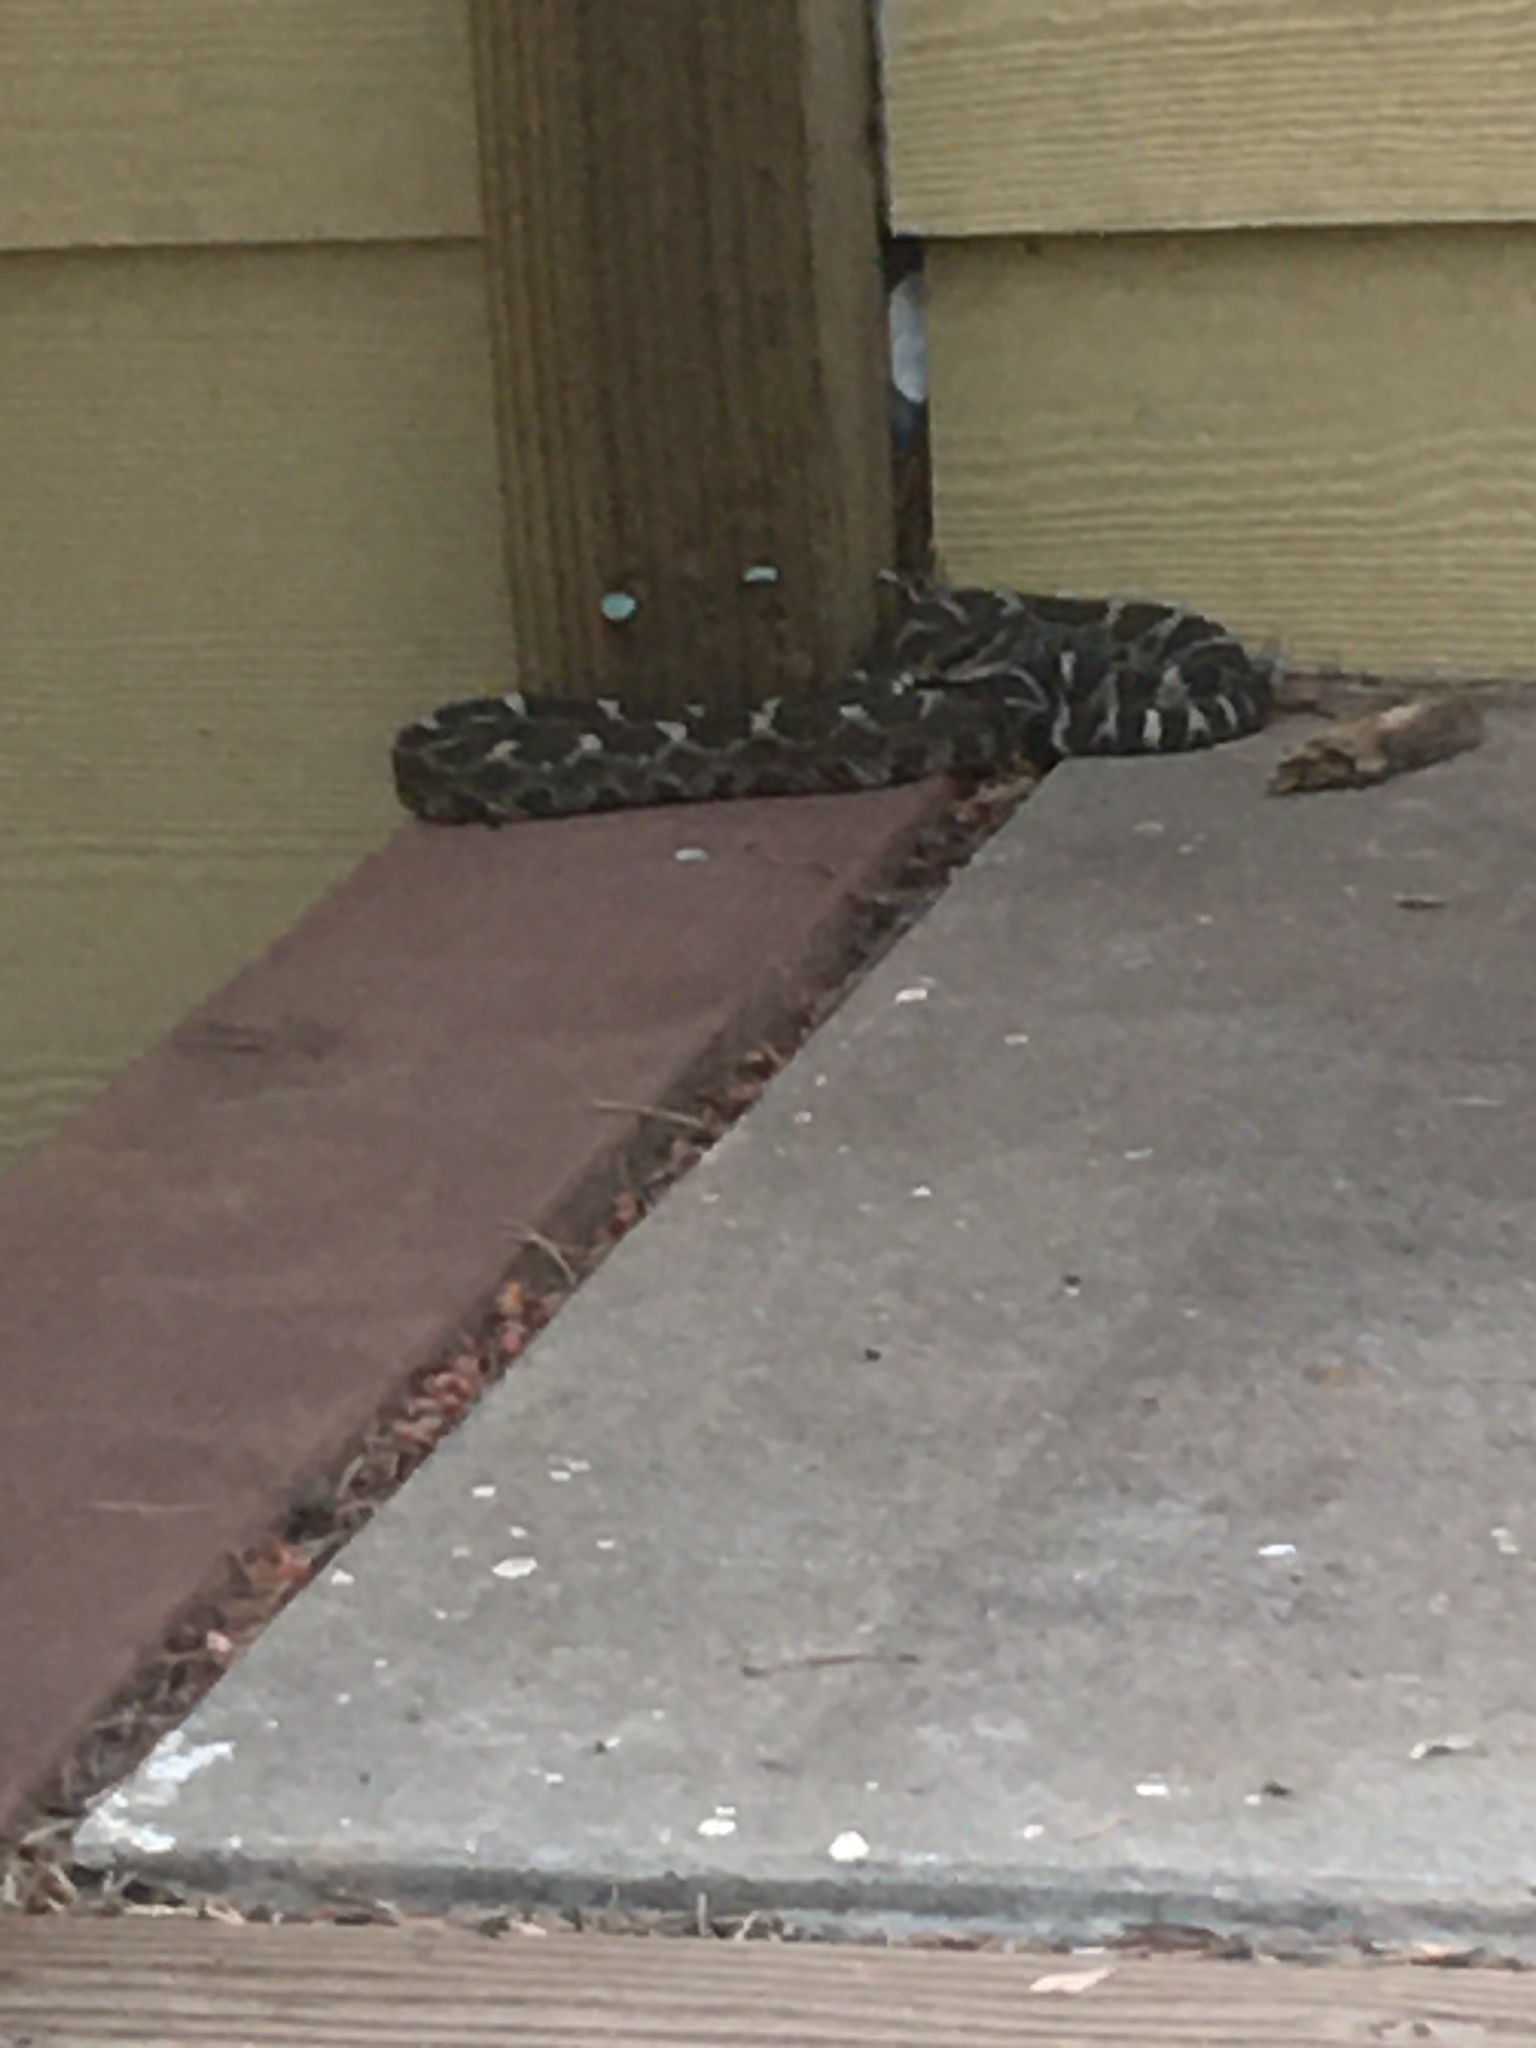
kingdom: Animalia
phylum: Chordata
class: Squamata
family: Viperidae
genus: Crotalus
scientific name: Crotalus oreganus
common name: Abyssus
